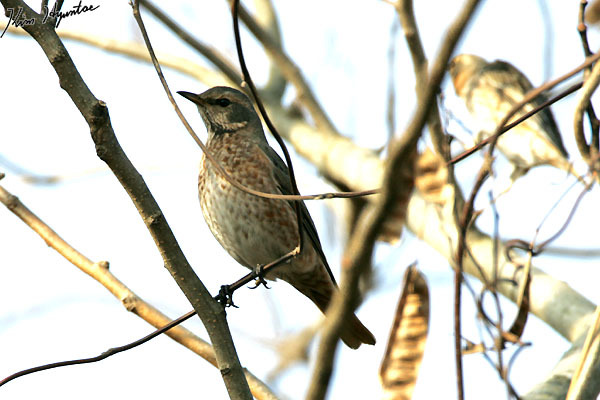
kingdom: Animalia
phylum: Chordata
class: Aves
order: Passeriformes
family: Turdidae
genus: Turdus
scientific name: Turdus naumanni
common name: Naumann's thrush
